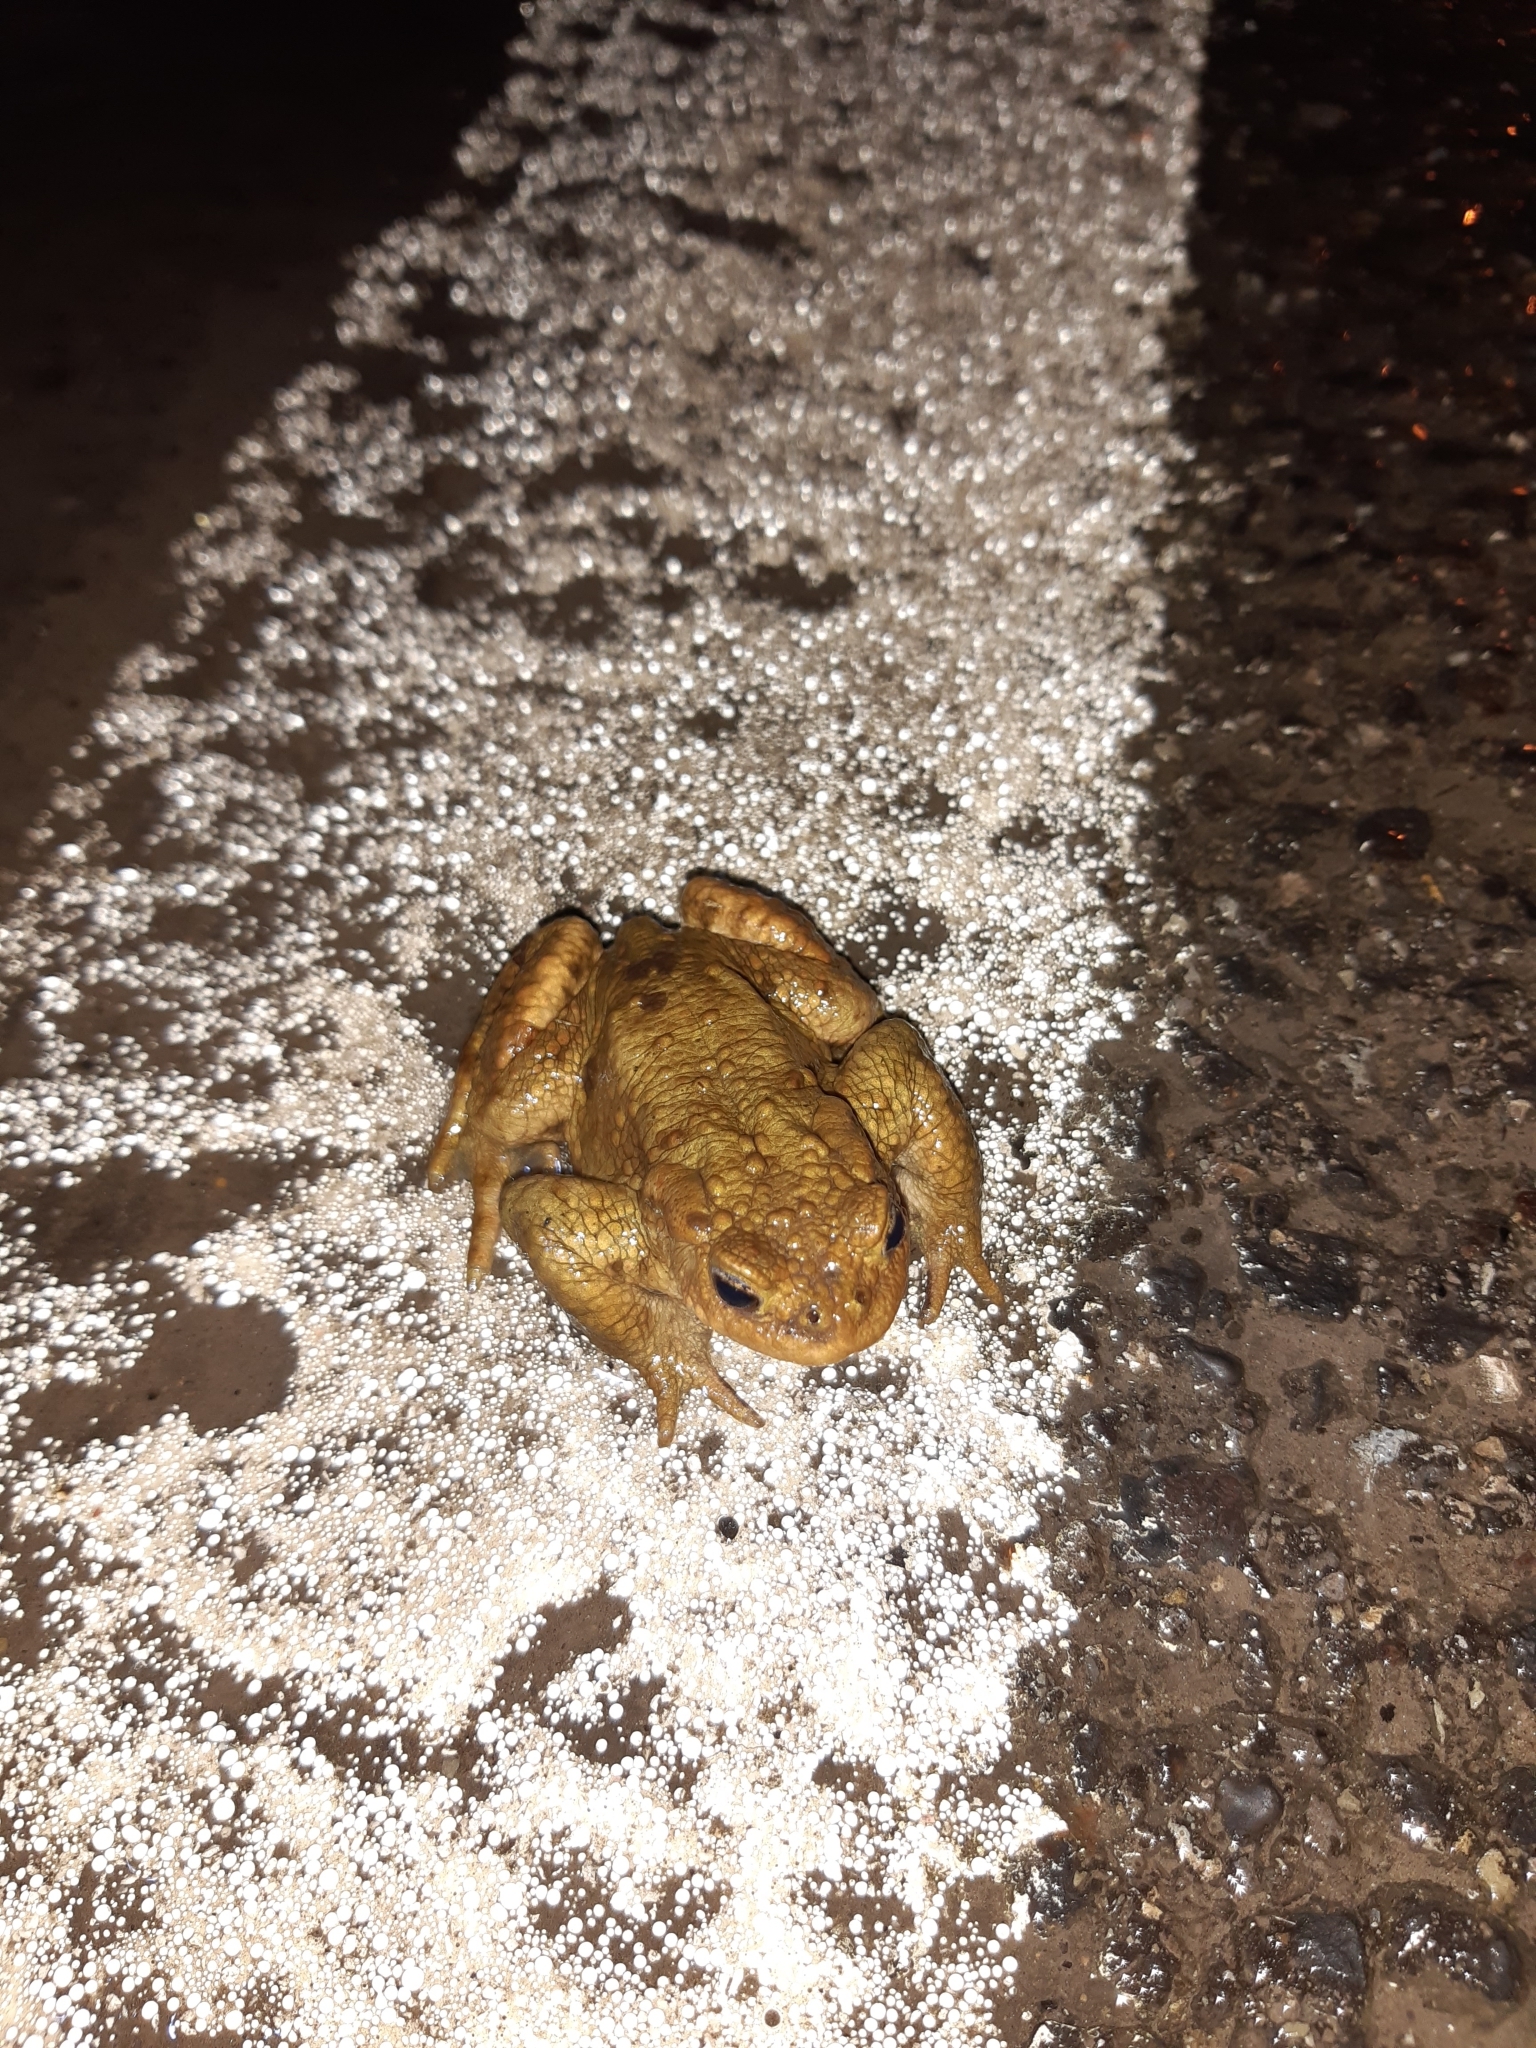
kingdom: Animalia
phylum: Chordata
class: Amphibia
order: Anura
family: Bufonidae
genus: Bufo
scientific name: Bufo bufo
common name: Common toad
